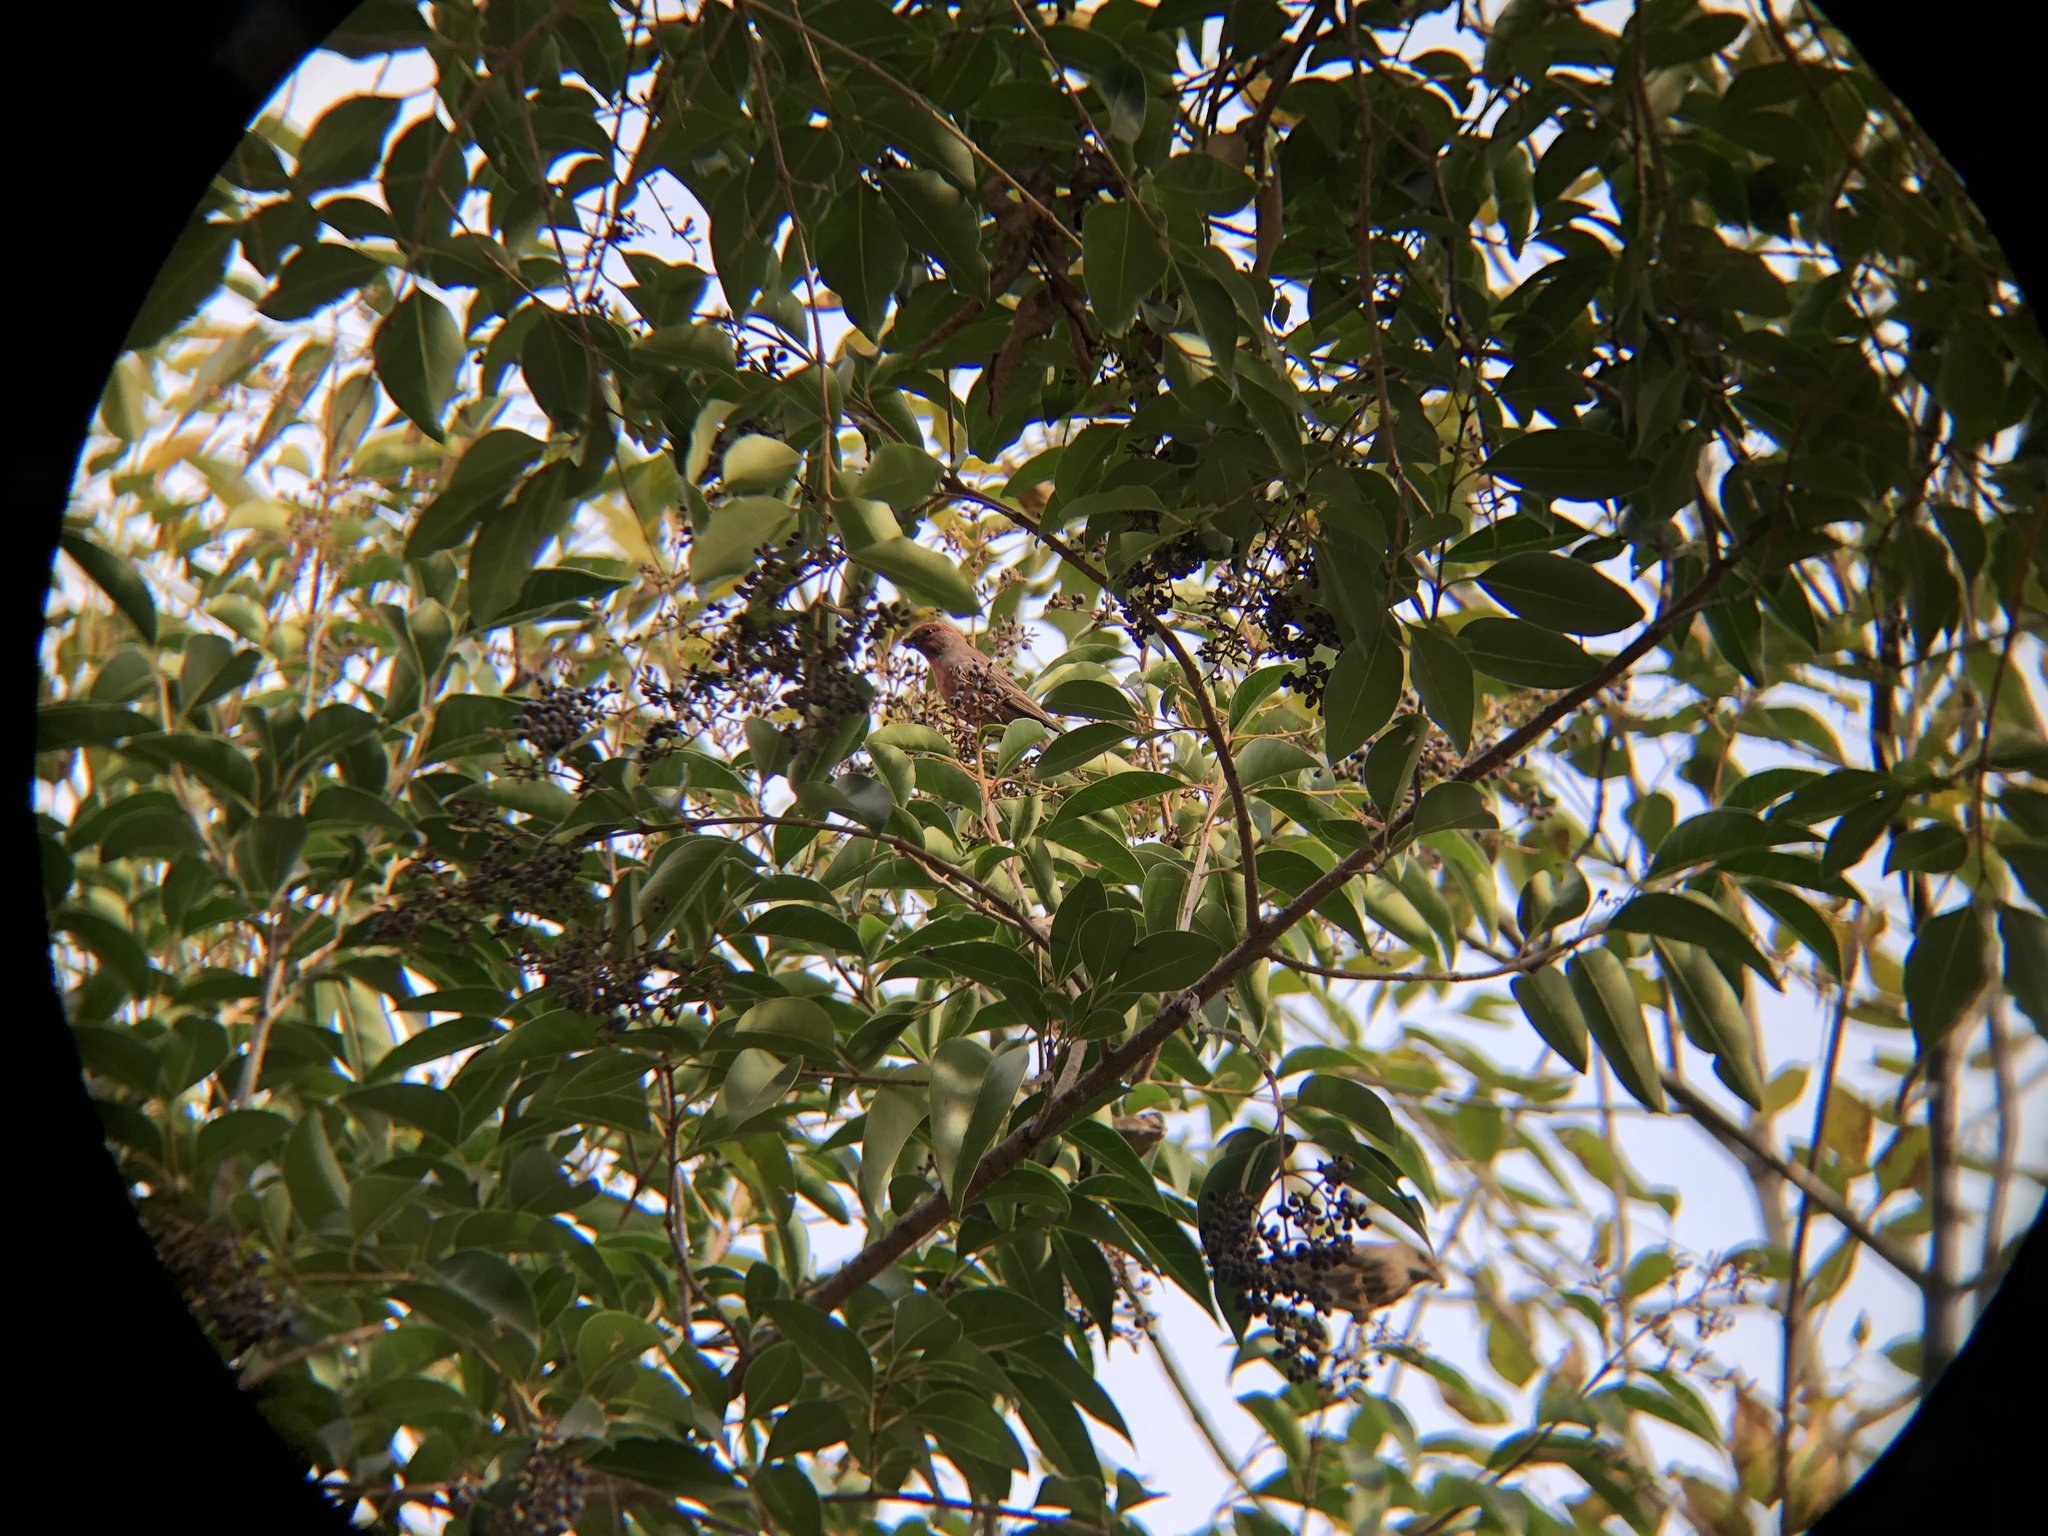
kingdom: Animalia
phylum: Chordata
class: Aves
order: Passeriformes
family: Fringillidae
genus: Haemorhous
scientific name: Haemorhous mexicanus
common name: House finch
